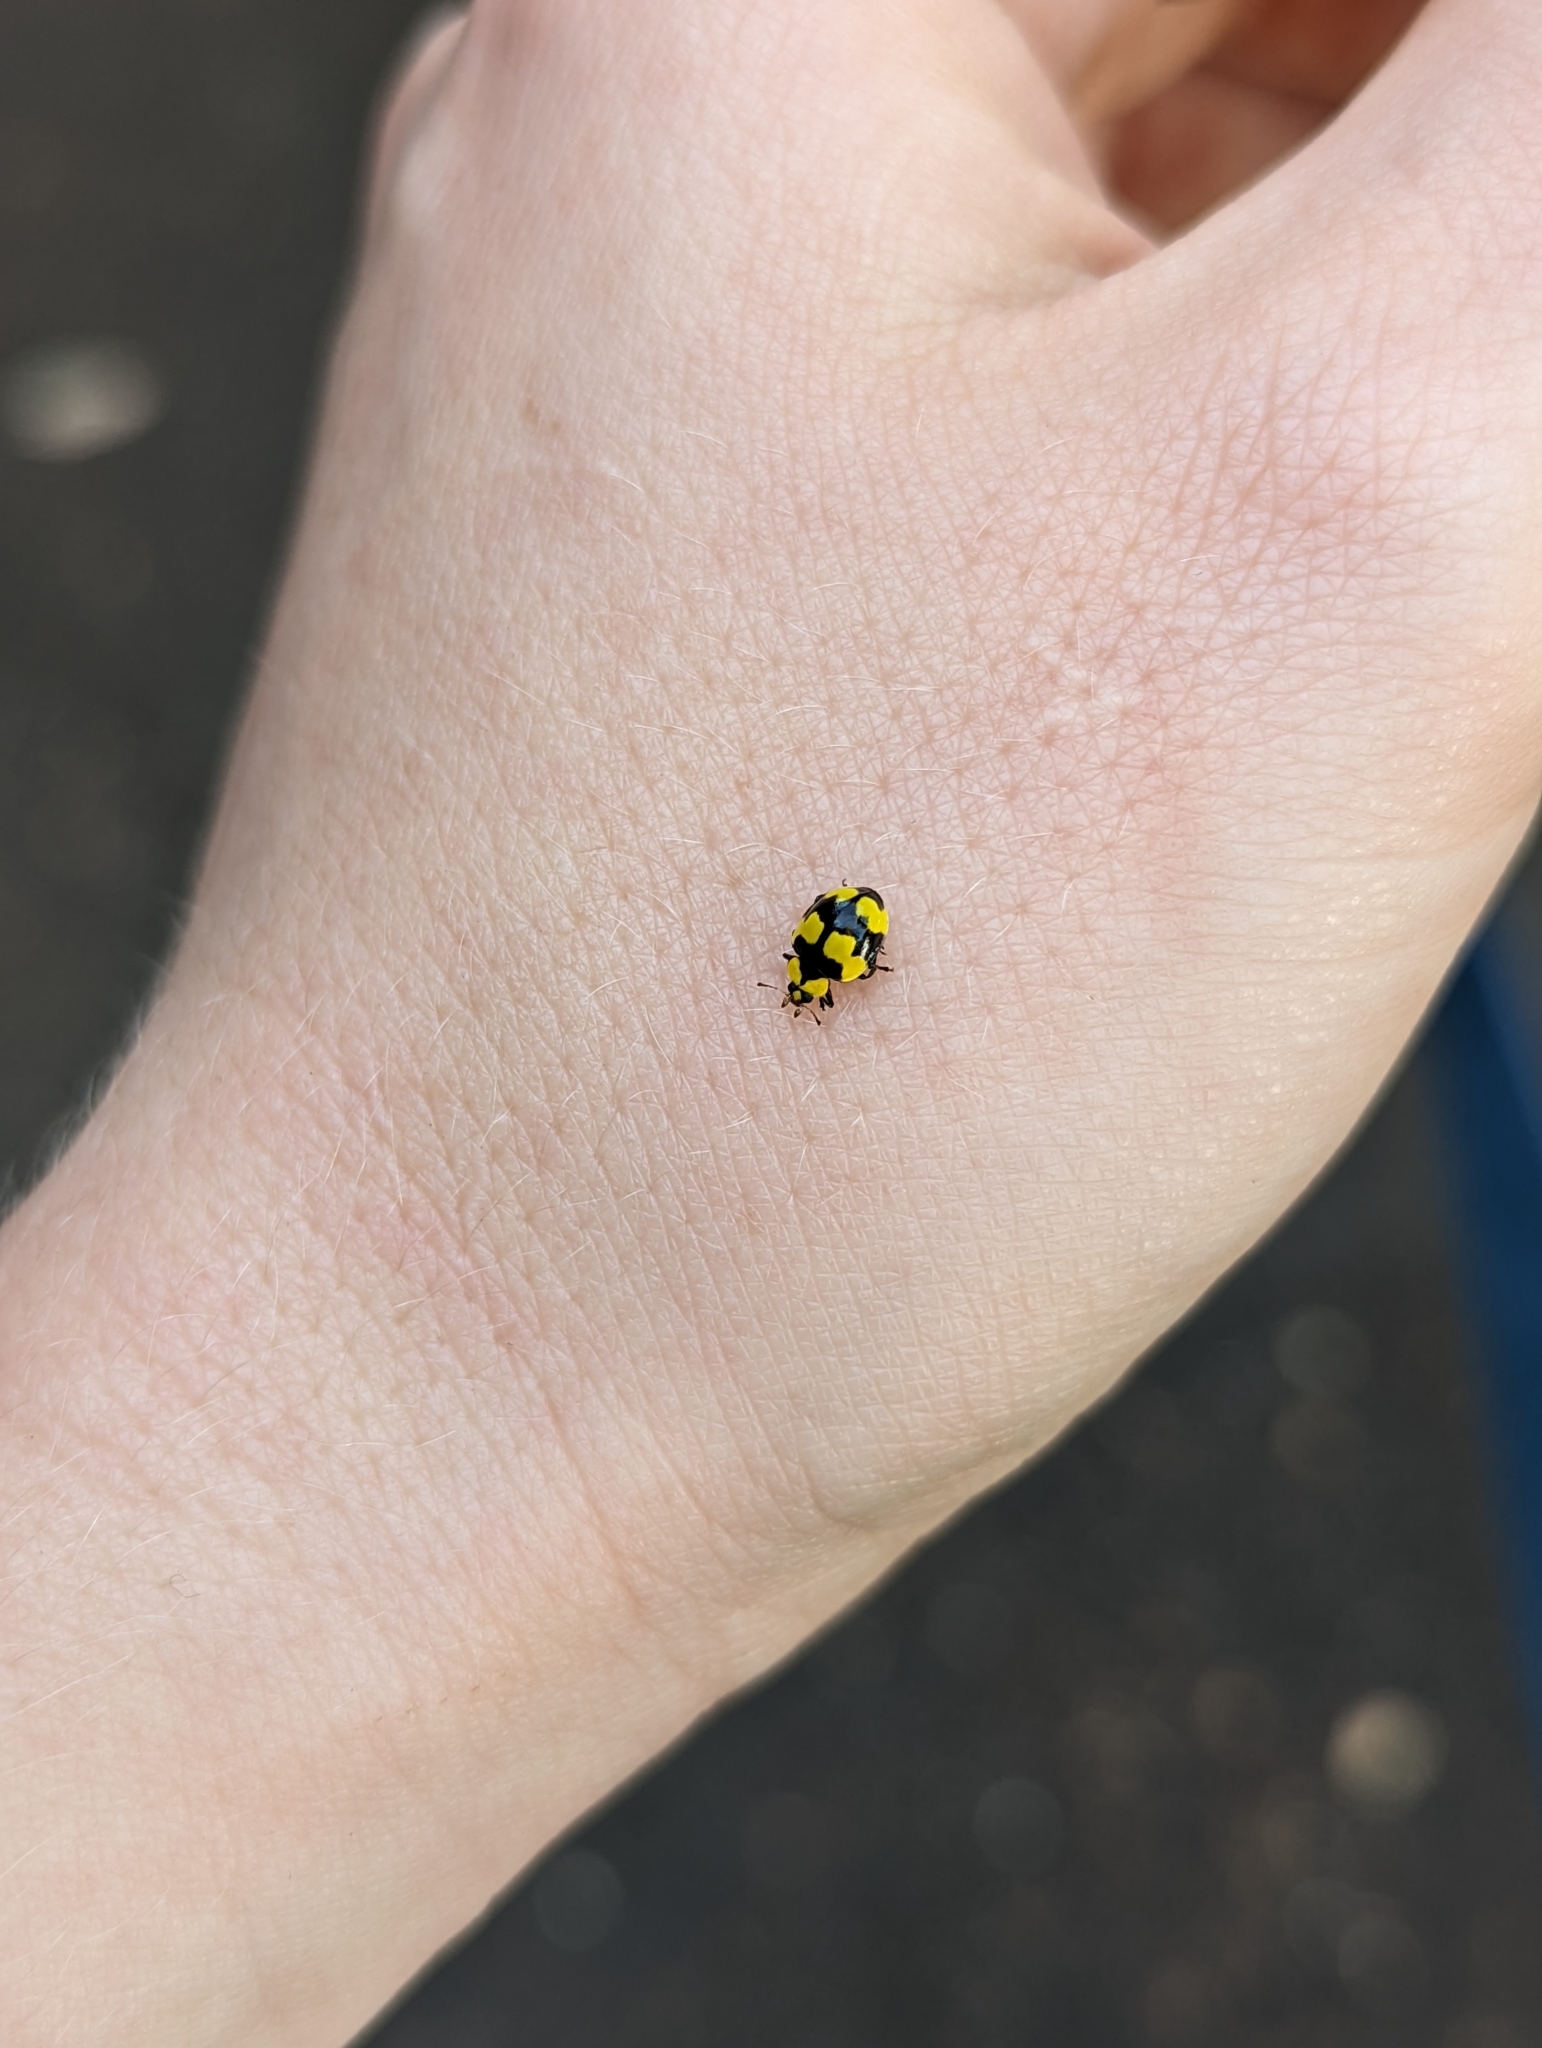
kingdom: Animalia
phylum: Arthropoda
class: Insecta
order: Coleoptera
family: Coccinellidae
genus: Illeis
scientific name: Illeis galbula
